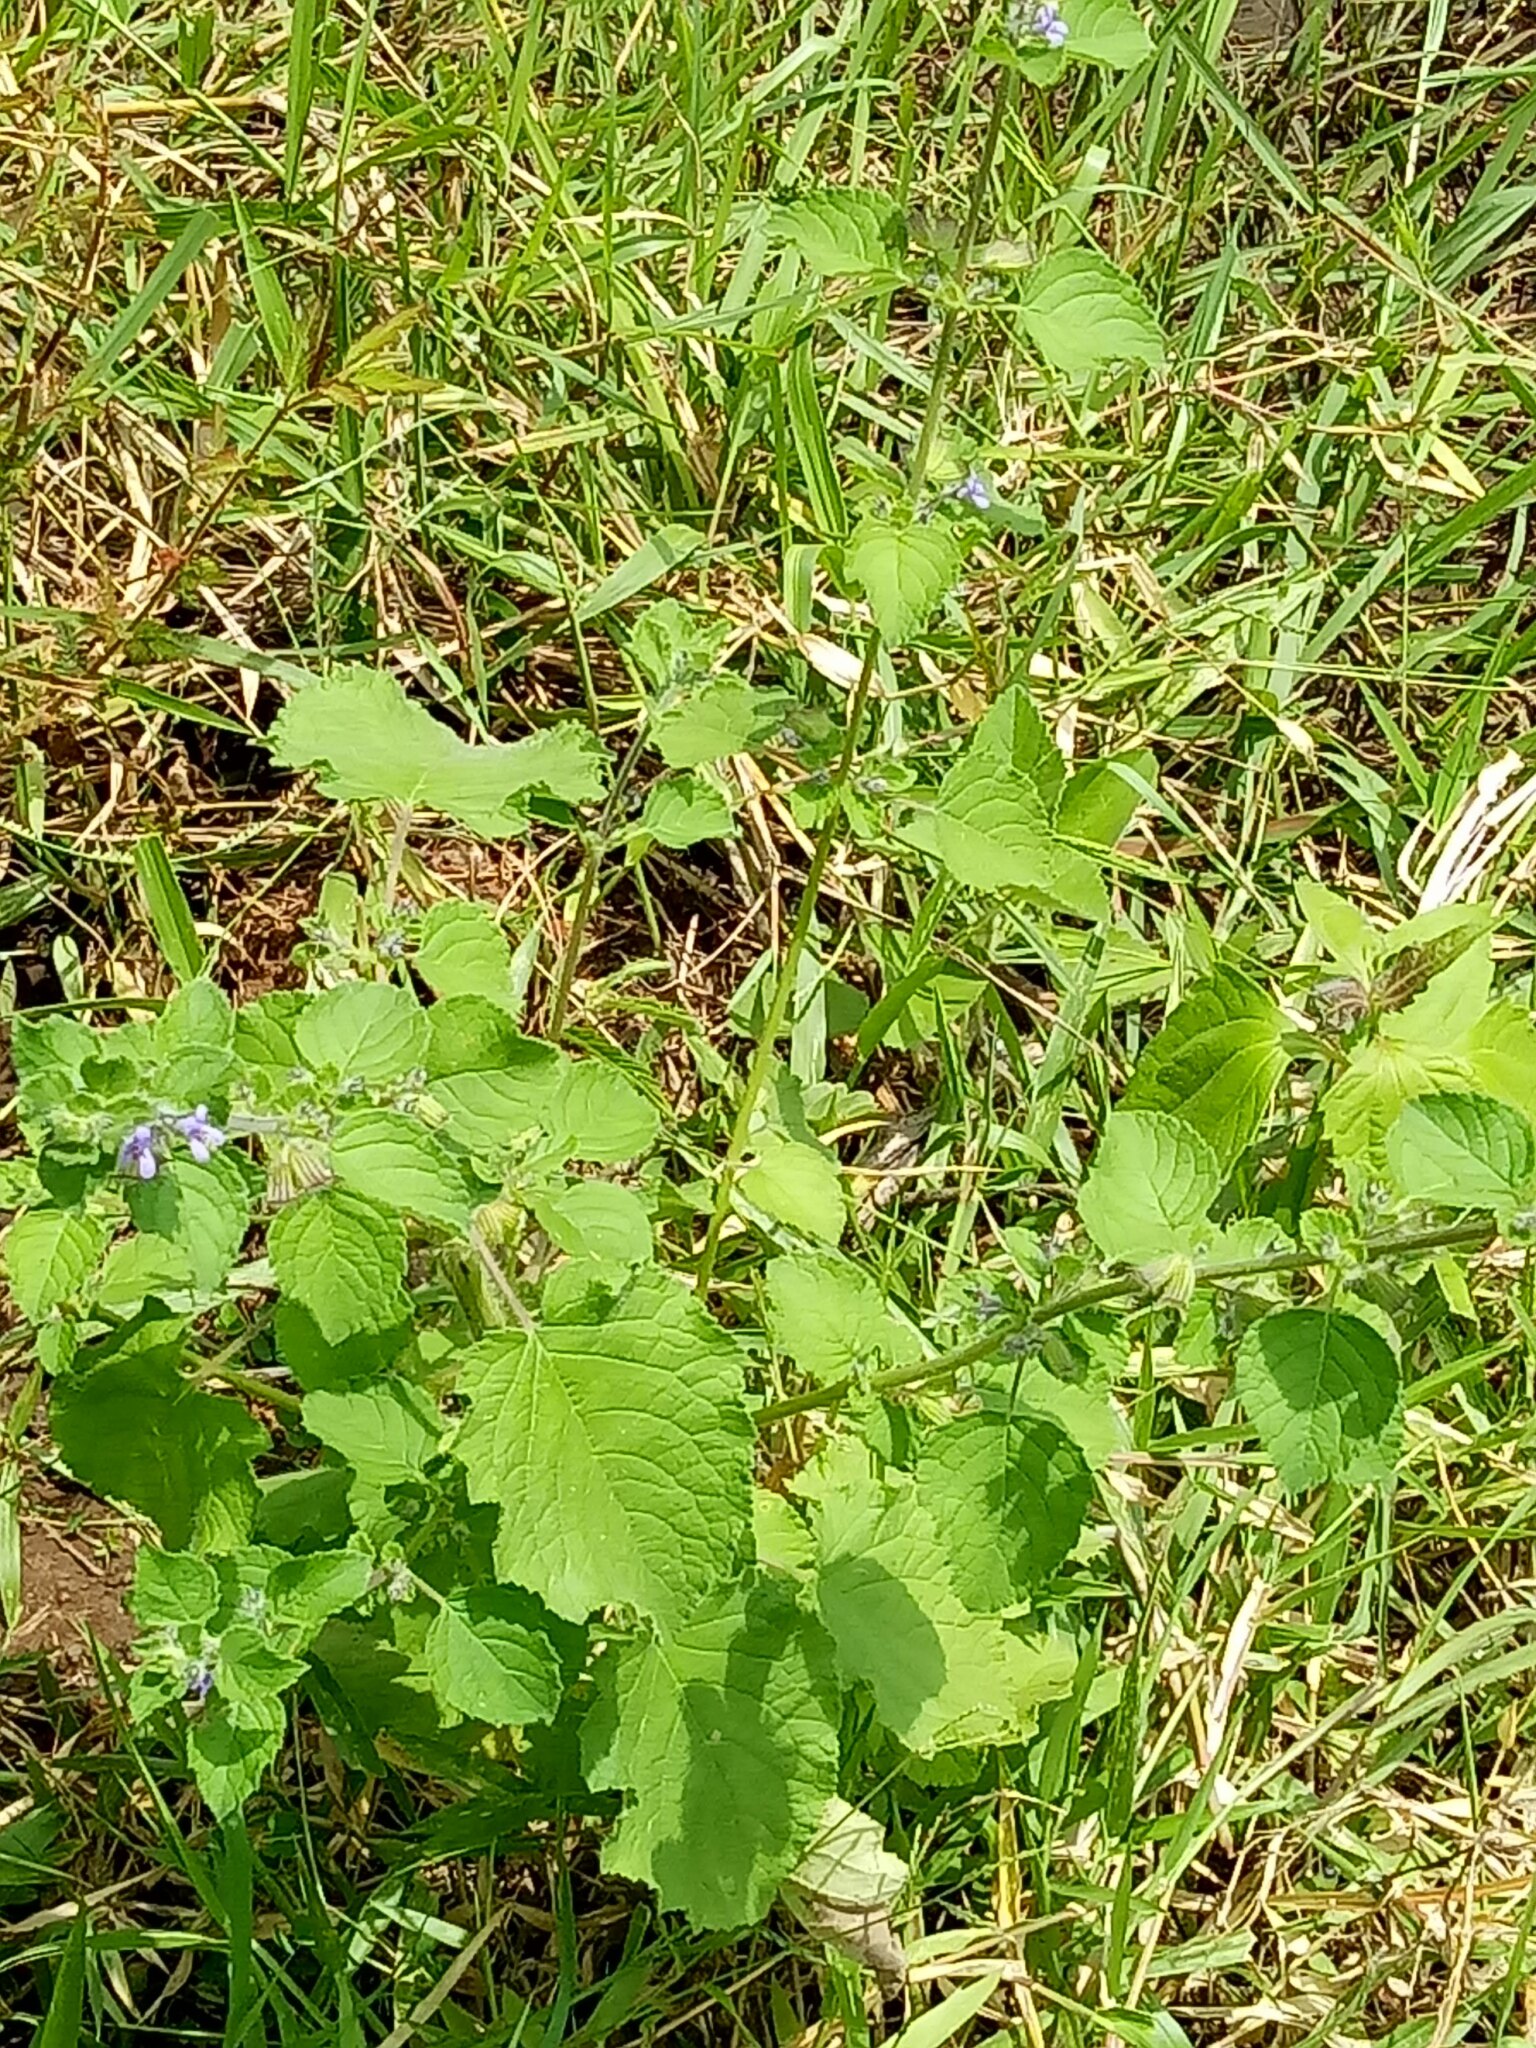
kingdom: Plantae
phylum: Tracheophyta
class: Magnoliopsida
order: Lamiales
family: Lamiaceae
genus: Mesosphaerum
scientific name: Mesosphaerum suaveolens
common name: Pignut
